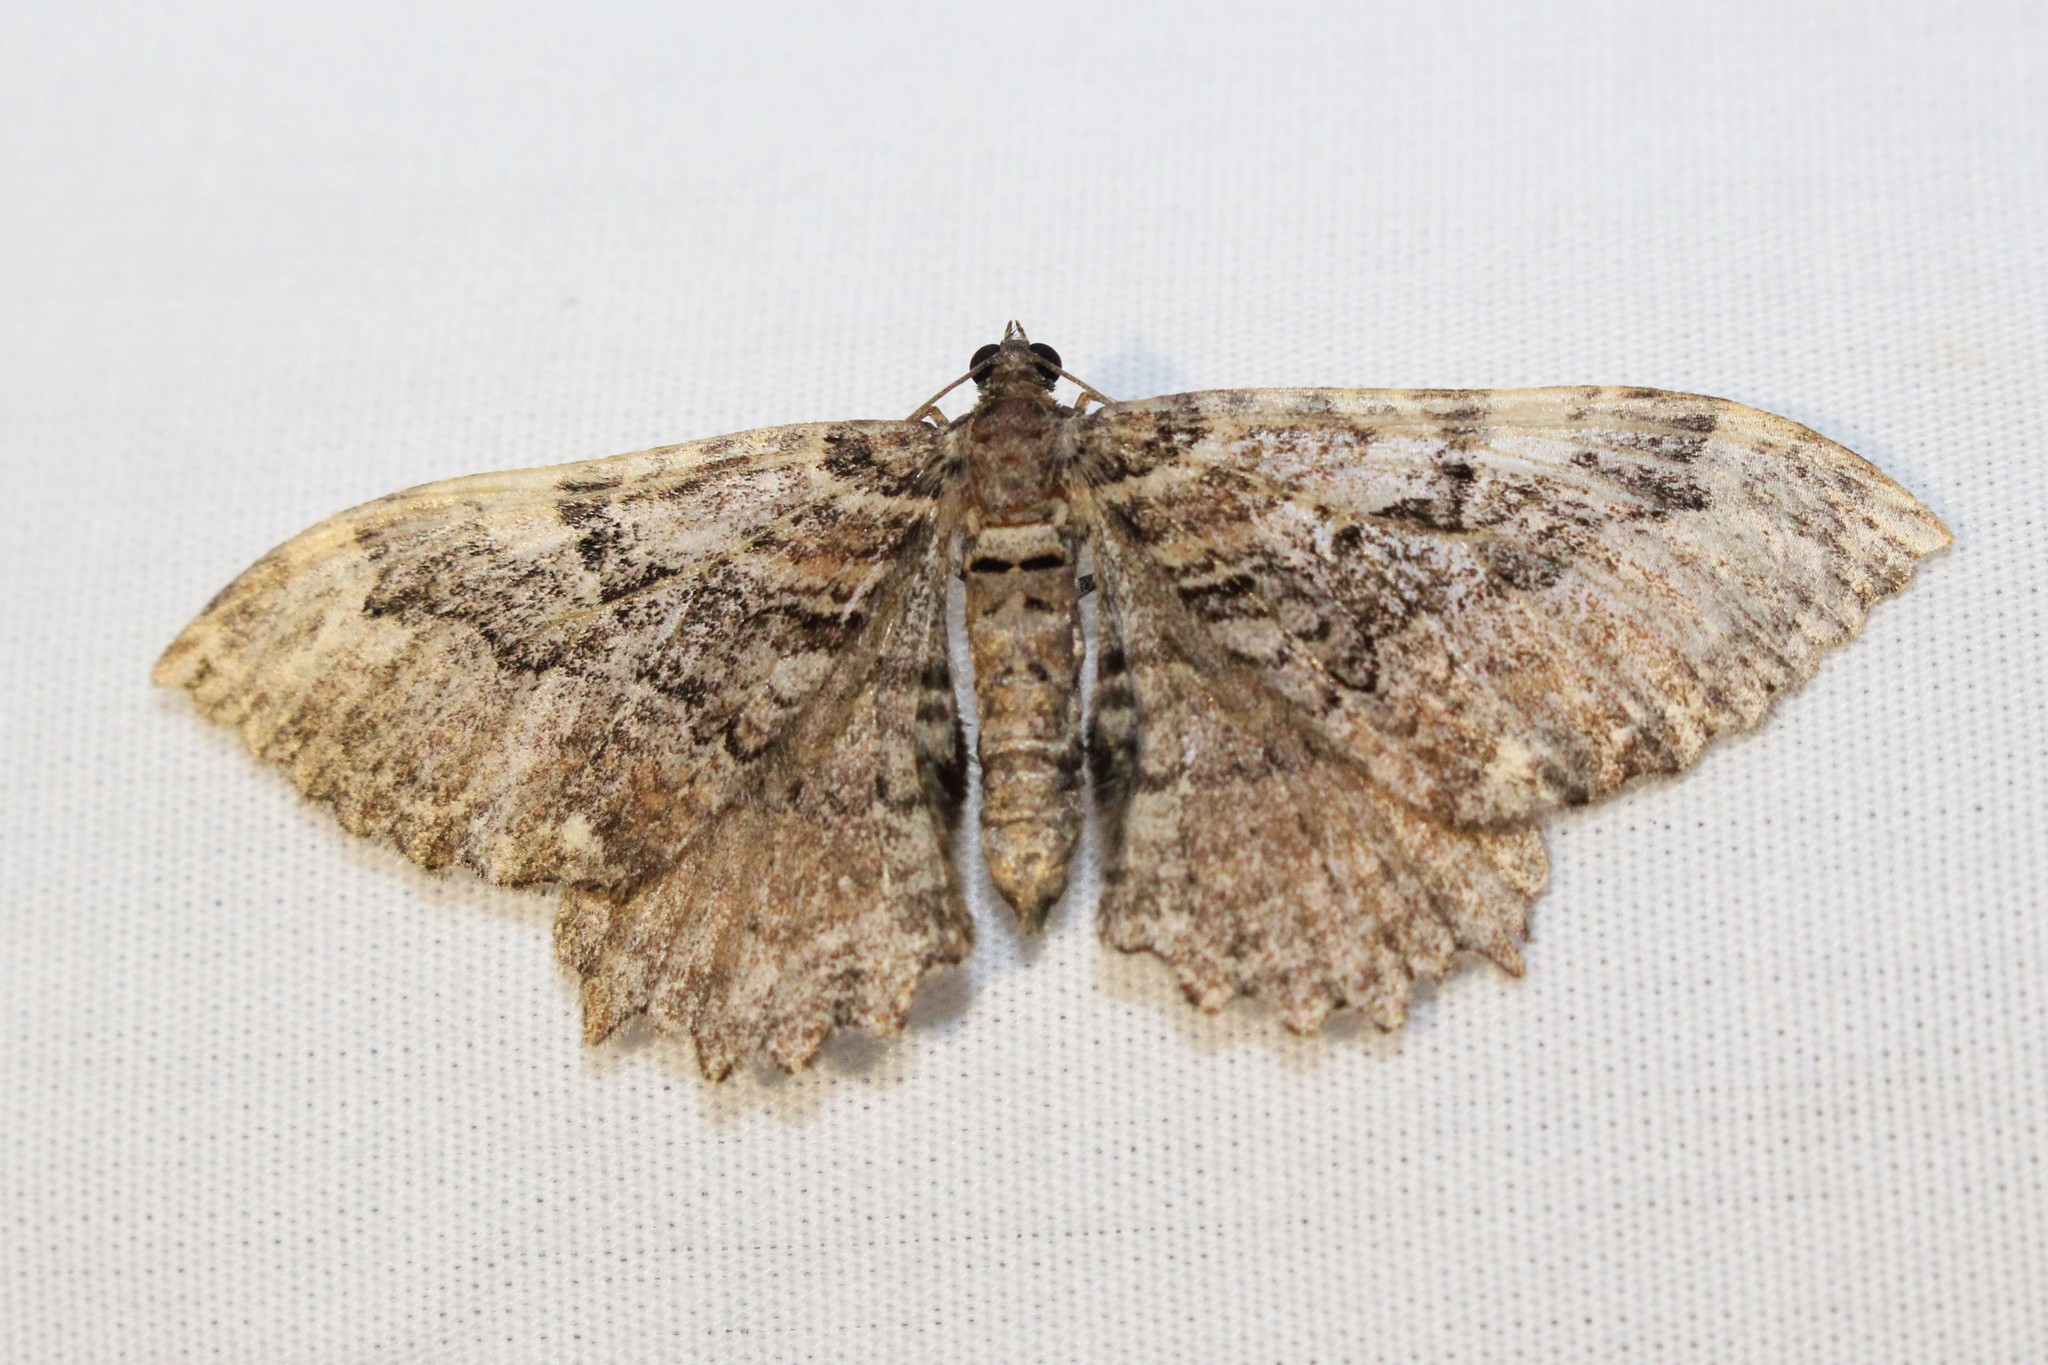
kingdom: Animalia
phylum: Arthropoda
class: Insecta
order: Lepidoptera
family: Geometridae
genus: Rheumaptera
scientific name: Rheumaptera
